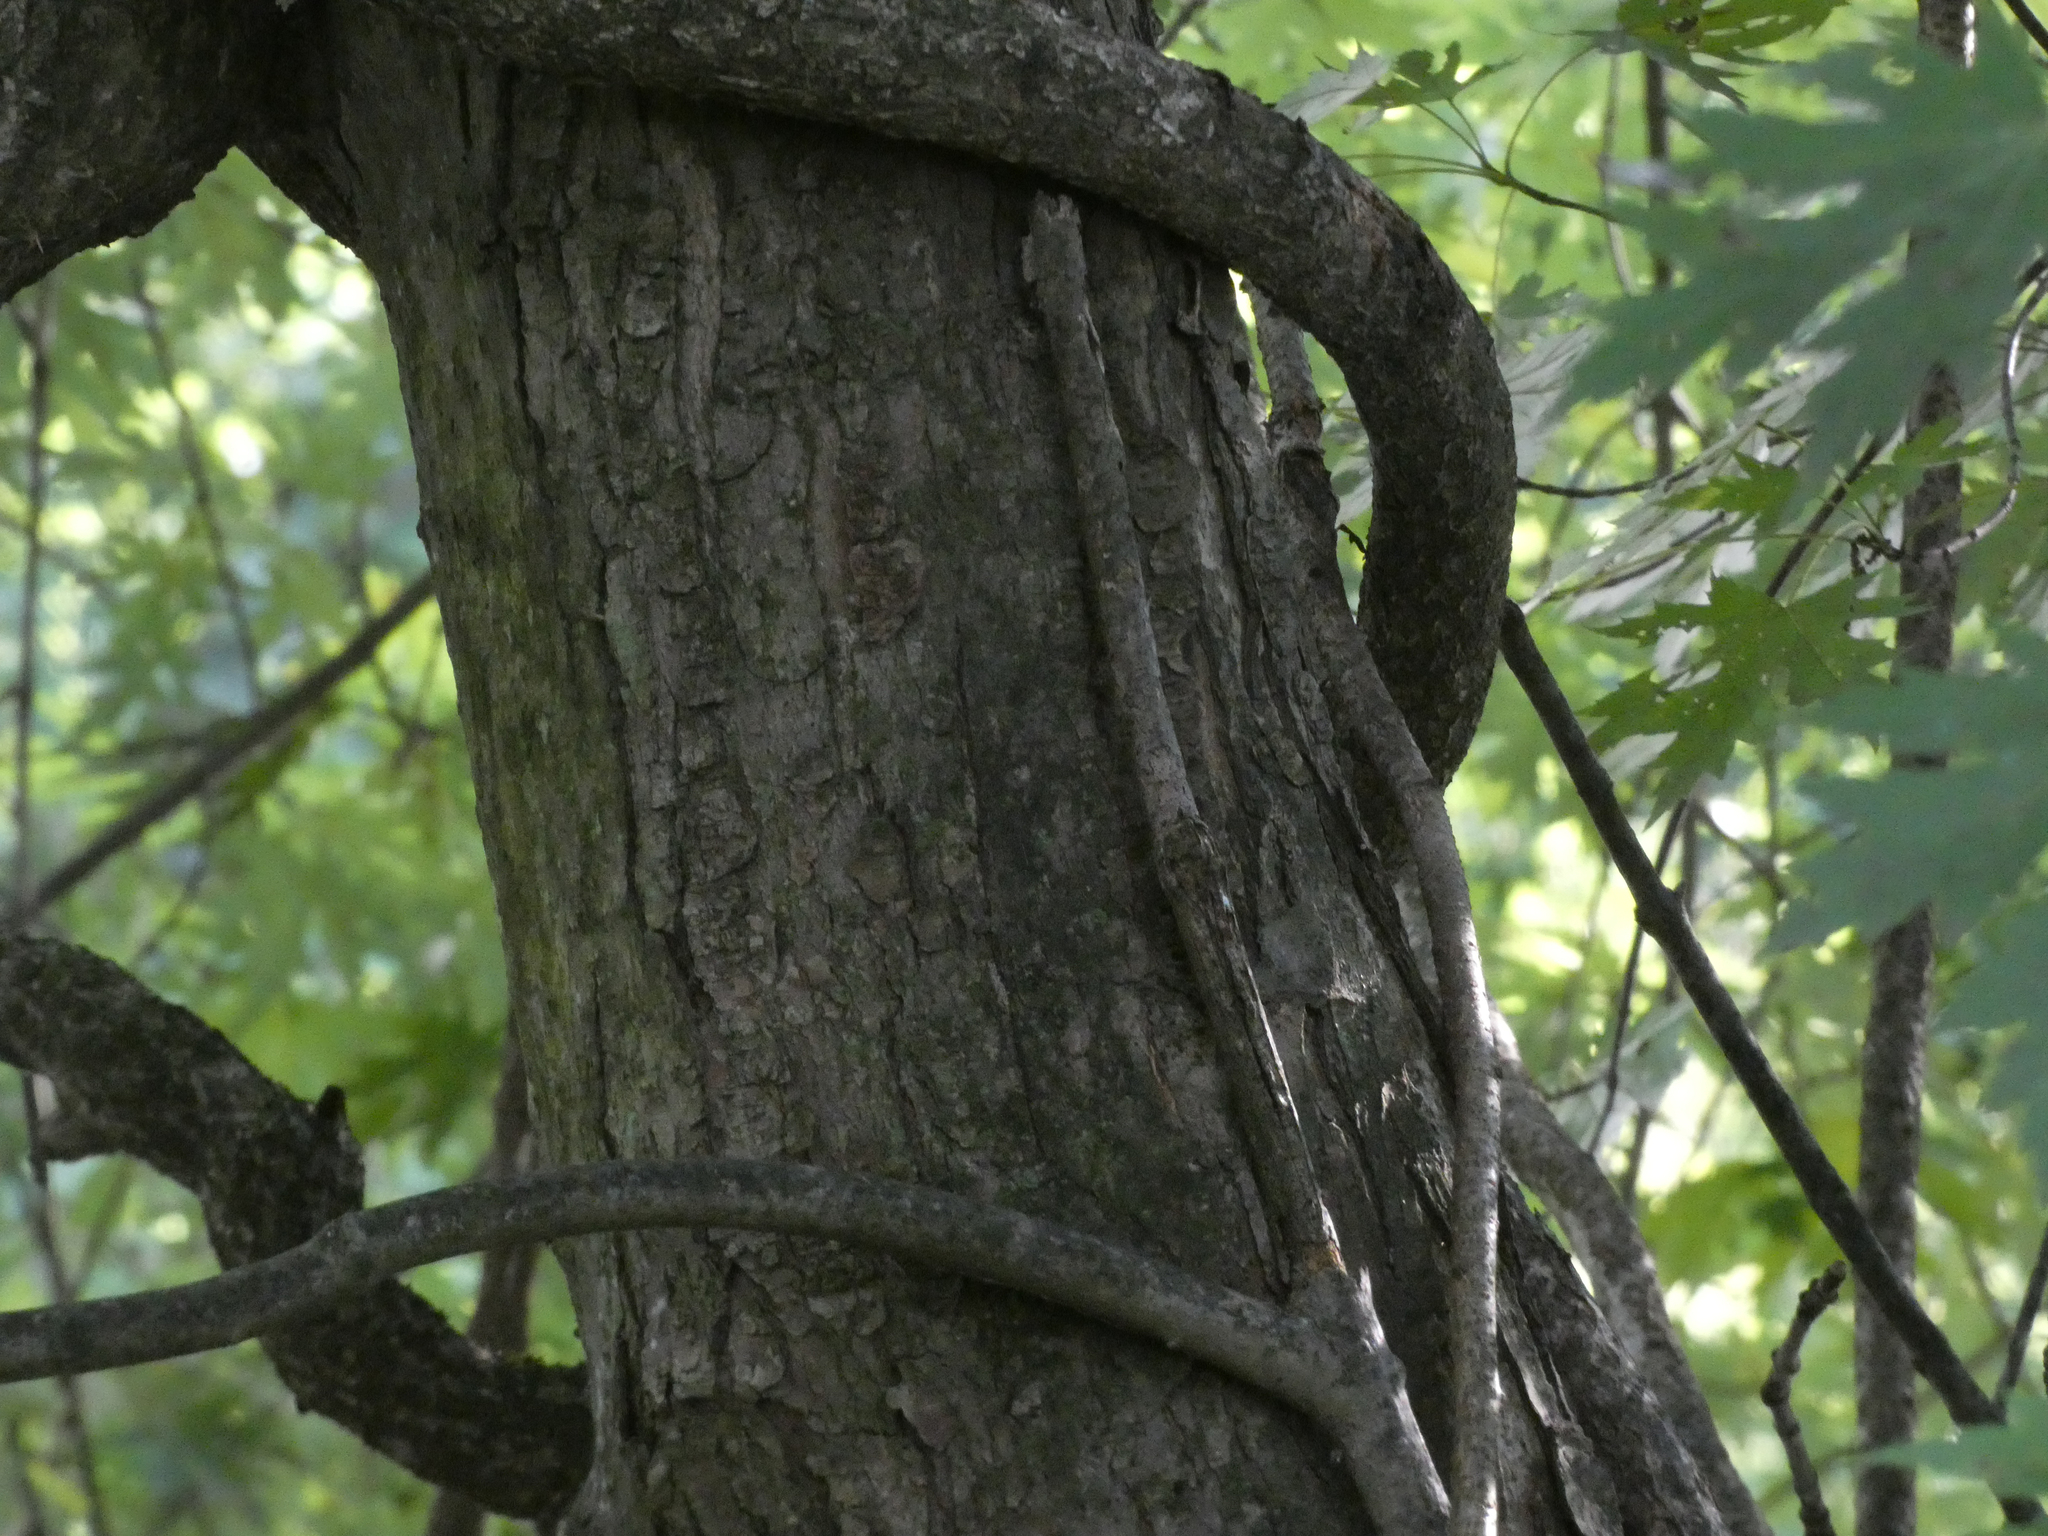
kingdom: Plantae
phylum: Tracheophyta
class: Magnoliopsida
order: Sapindales
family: Sapindaceae
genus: Acer
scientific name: Acer saccharinum
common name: Silver maple
